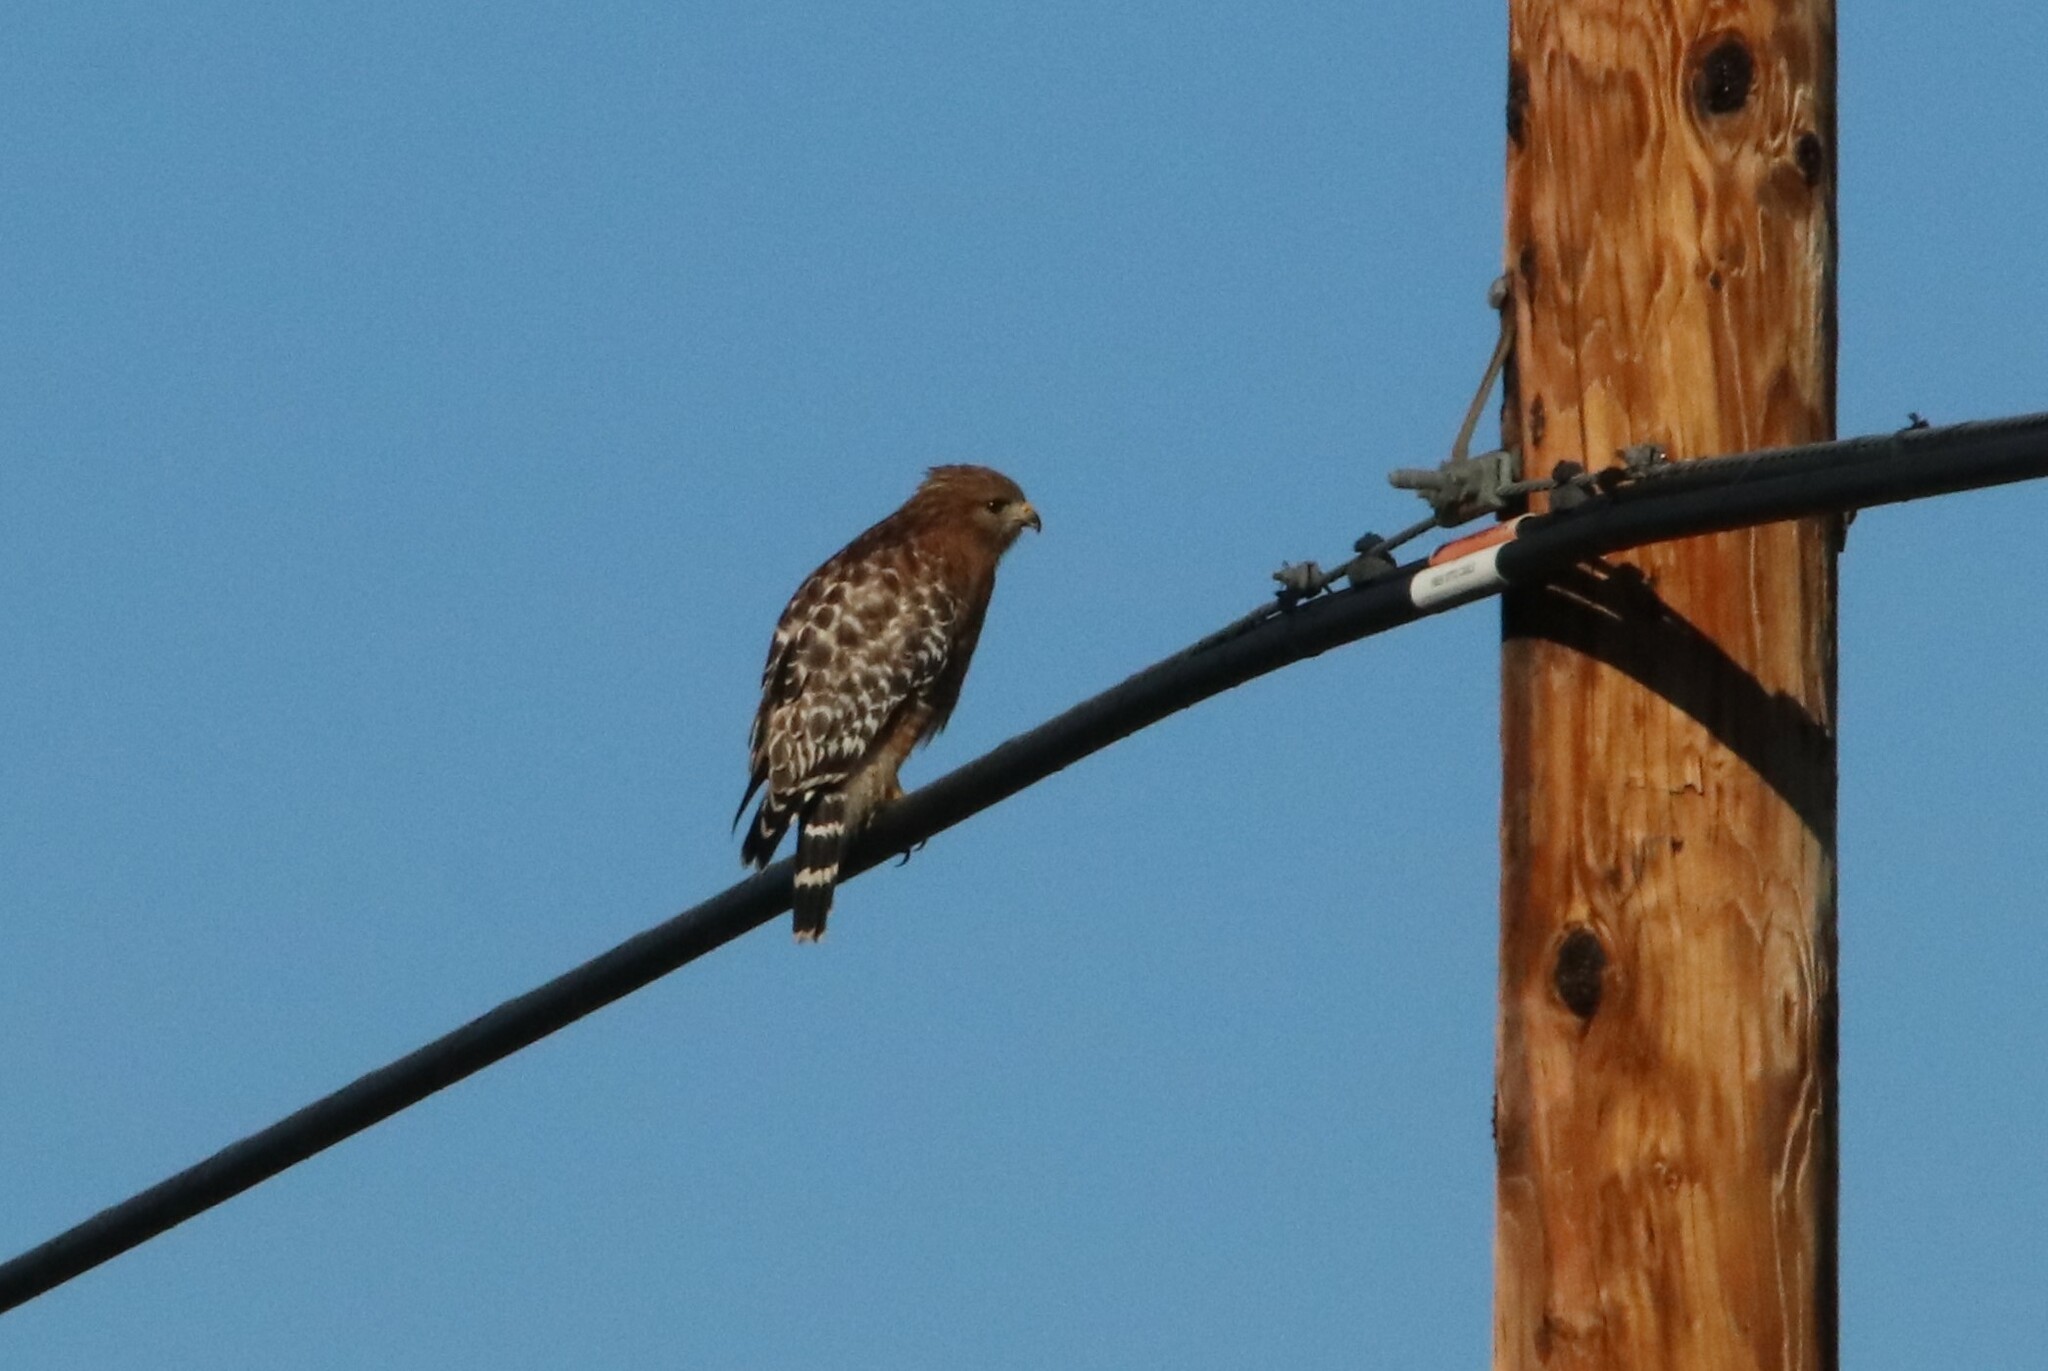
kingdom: Animalia
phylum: Chordata
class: Aves
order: Accipitriformes
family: Accipitridae
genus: Buteo
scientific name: Buteo lineatus
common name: Red-shouldered hawk
